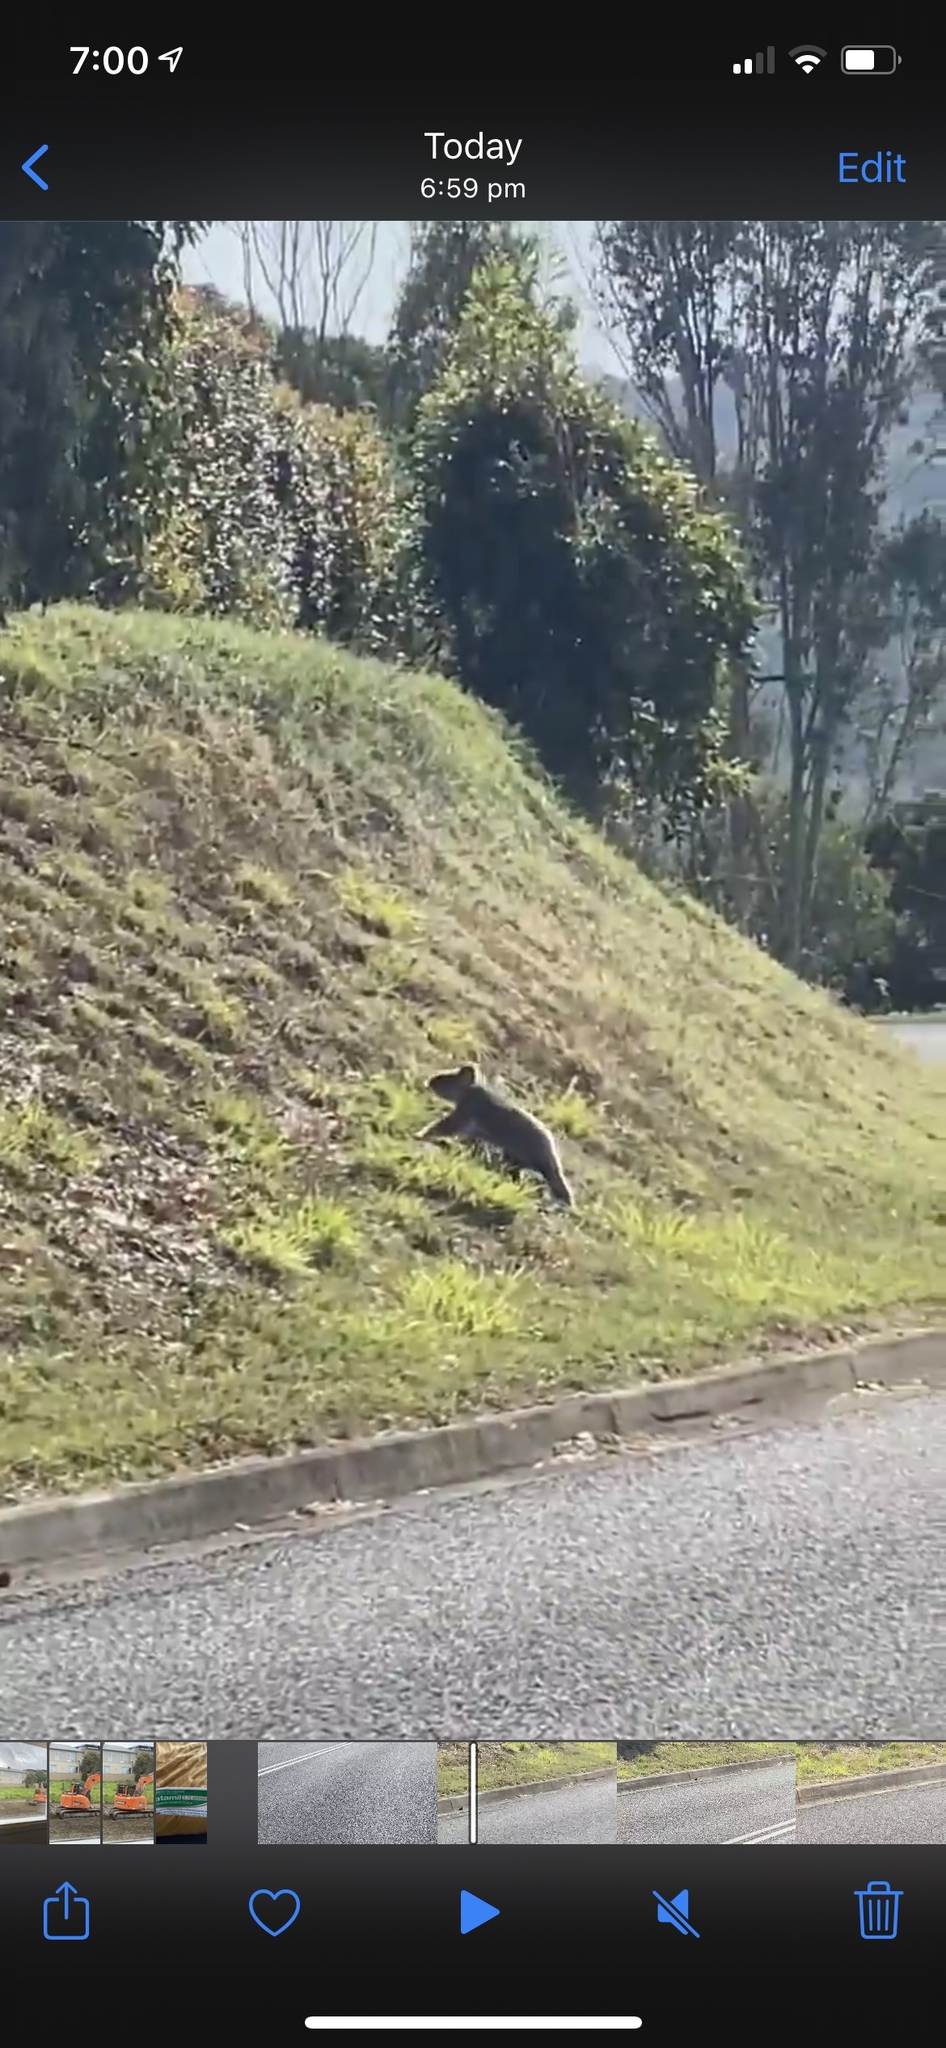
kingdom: Animalia
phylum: Chordata
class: Mammalia
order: Diprotodontia
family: Phascolarctidae
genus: Phascolarctos
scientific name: Phascolarctos cinereus
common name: Koala
